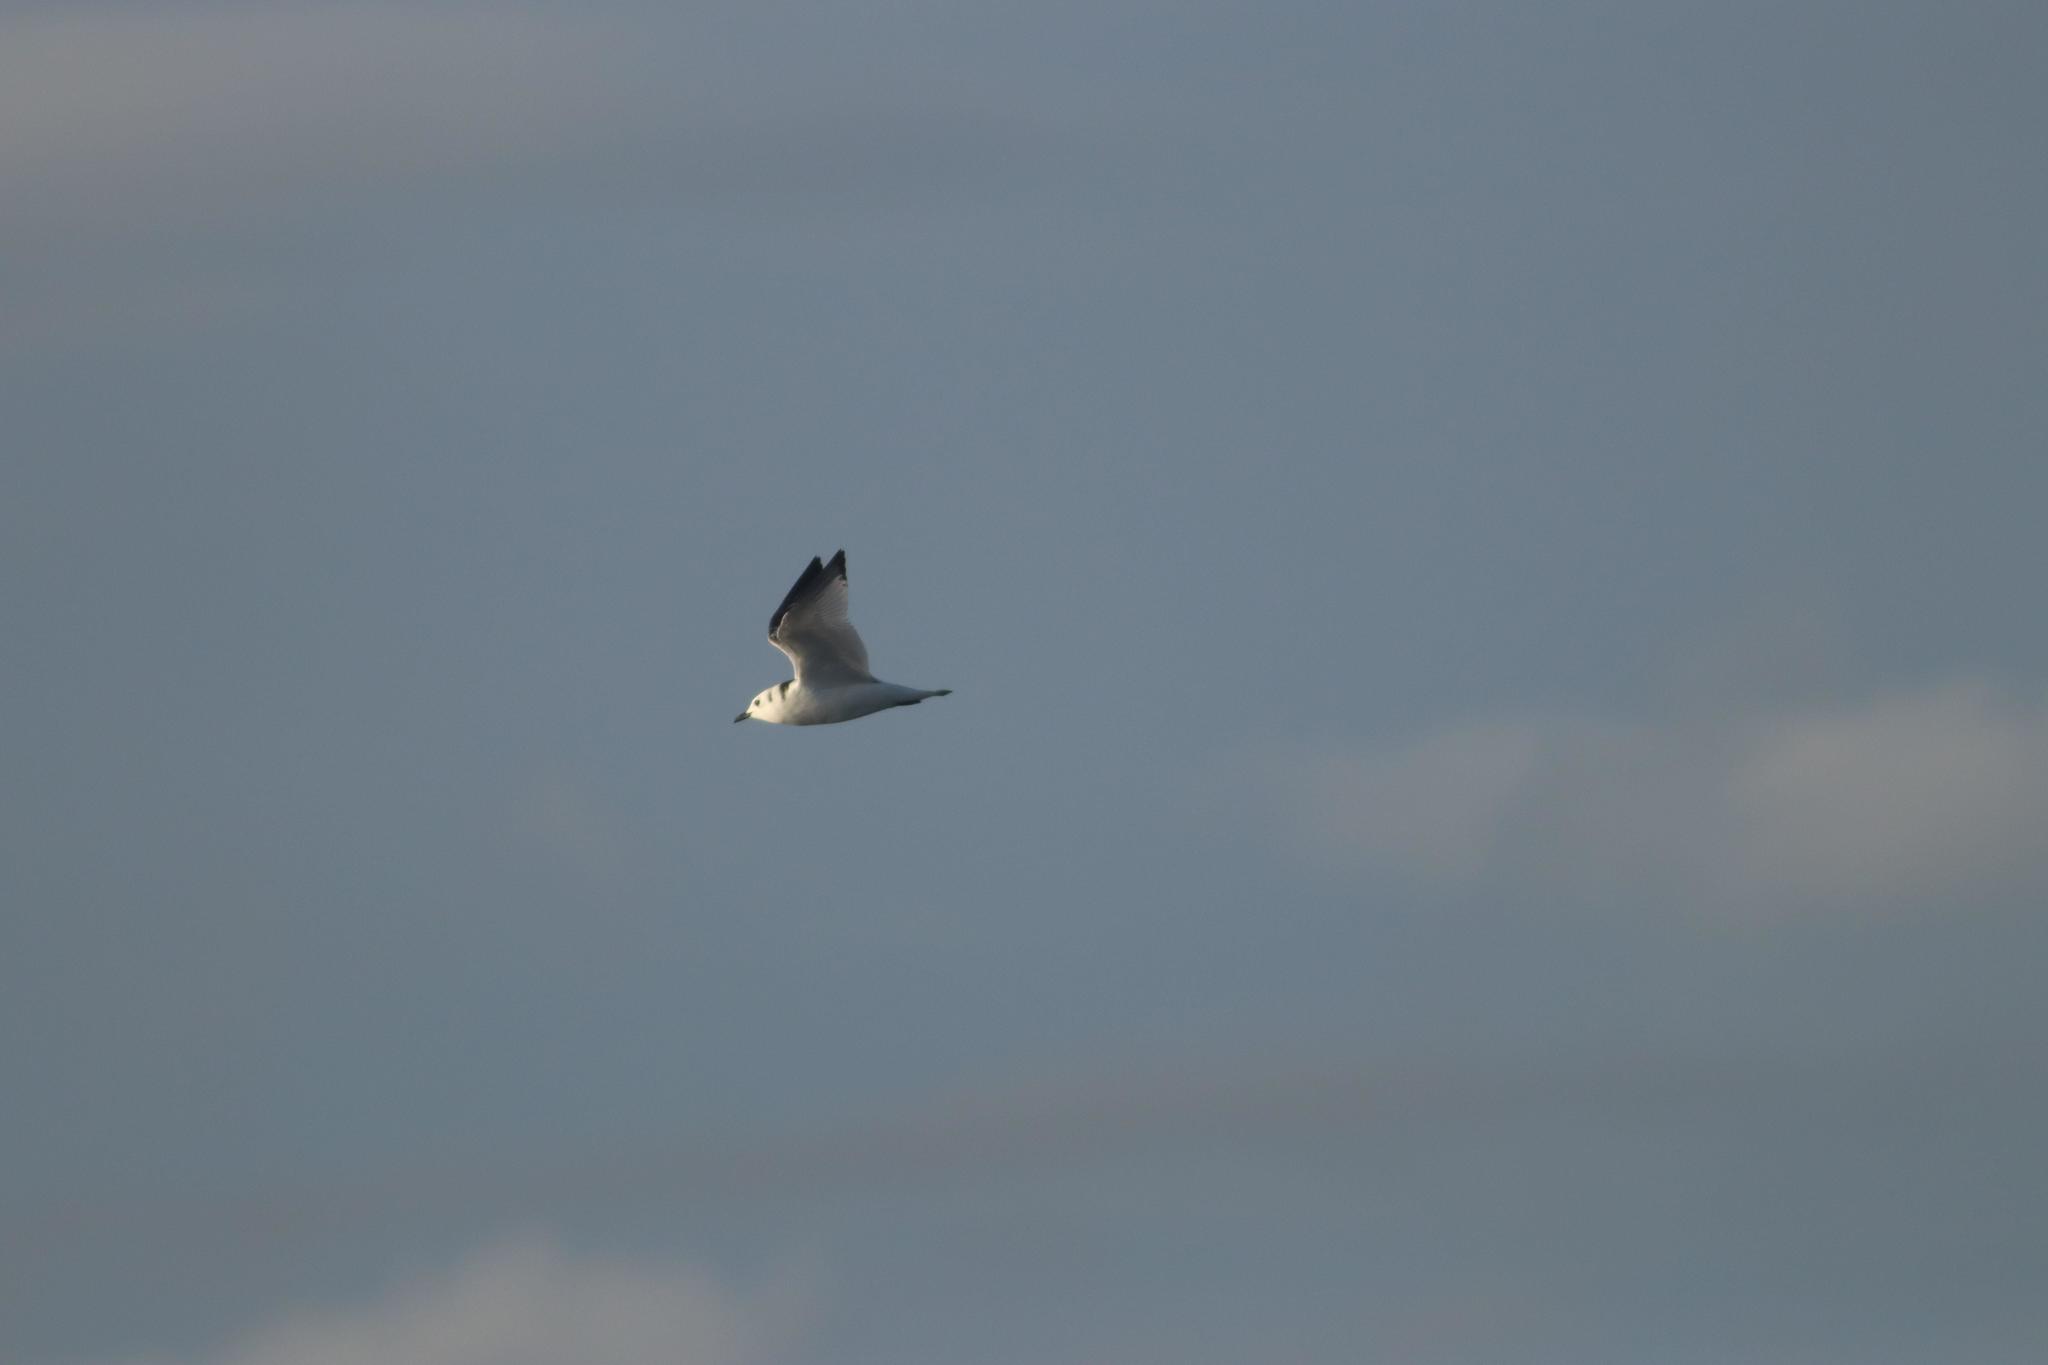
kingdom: Animalia
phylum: Chordata
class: Aves
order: Charadriiformes
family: Laridae
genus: Rissa
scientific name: Rissa tridactyla
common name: Black-legged kittiwake
